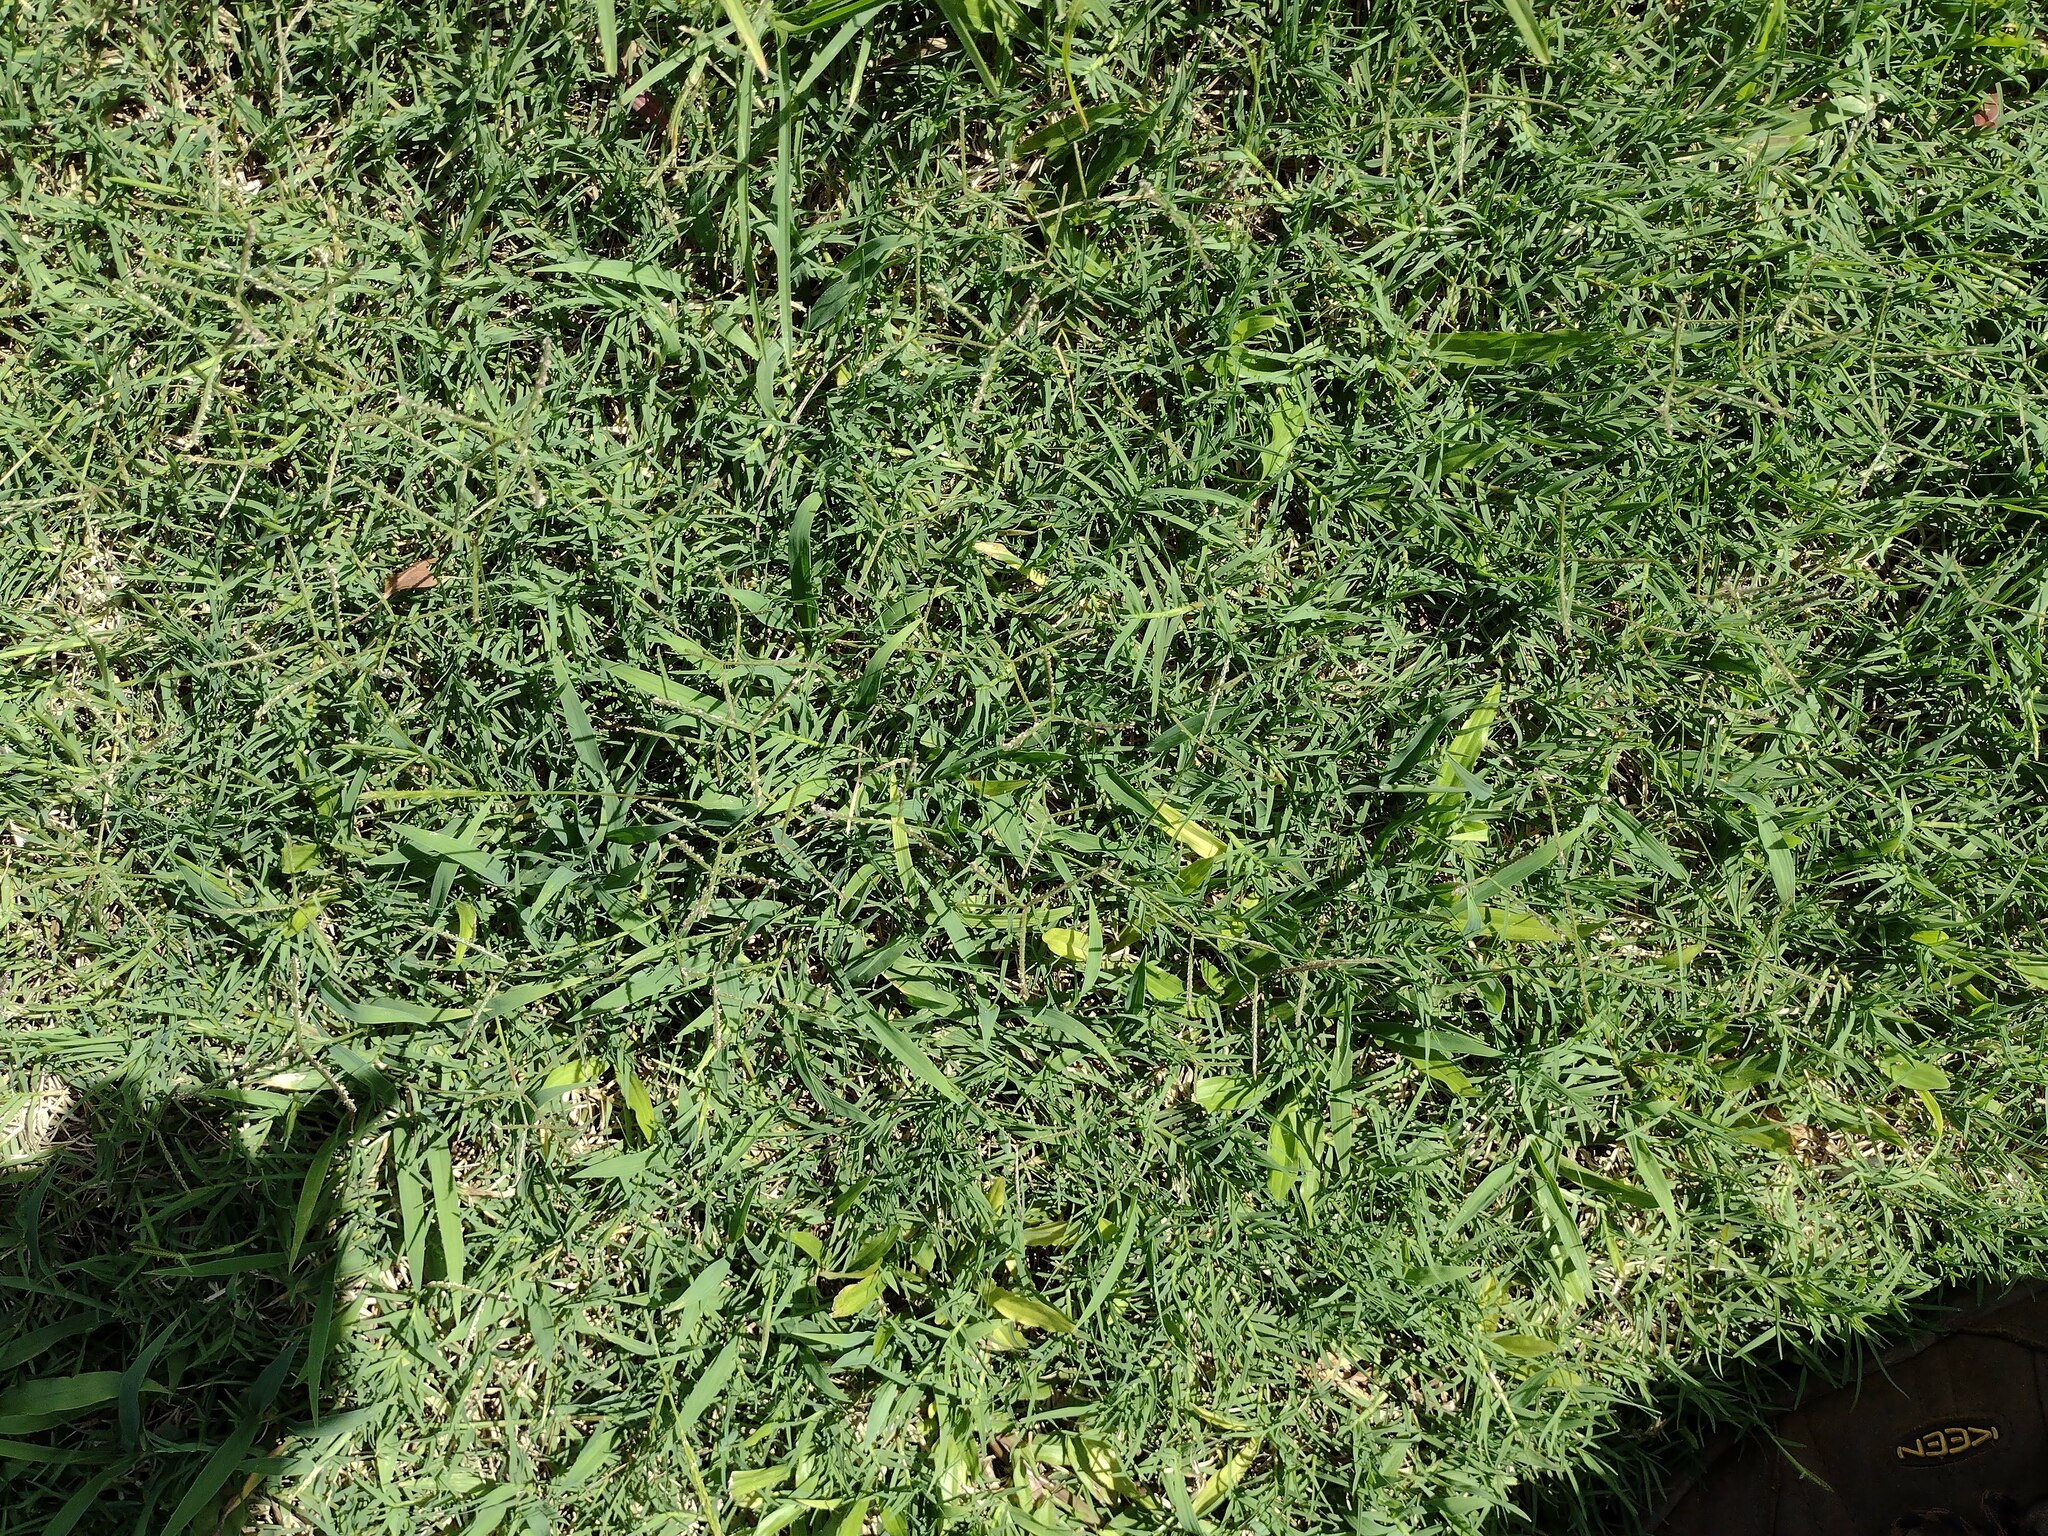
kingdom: Plantae
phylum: Tracheophyta
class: Liliopsida
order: Poales
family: Poaceae
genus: Cynodon
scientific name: Cynodon dactylon
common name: Bermuda grass
